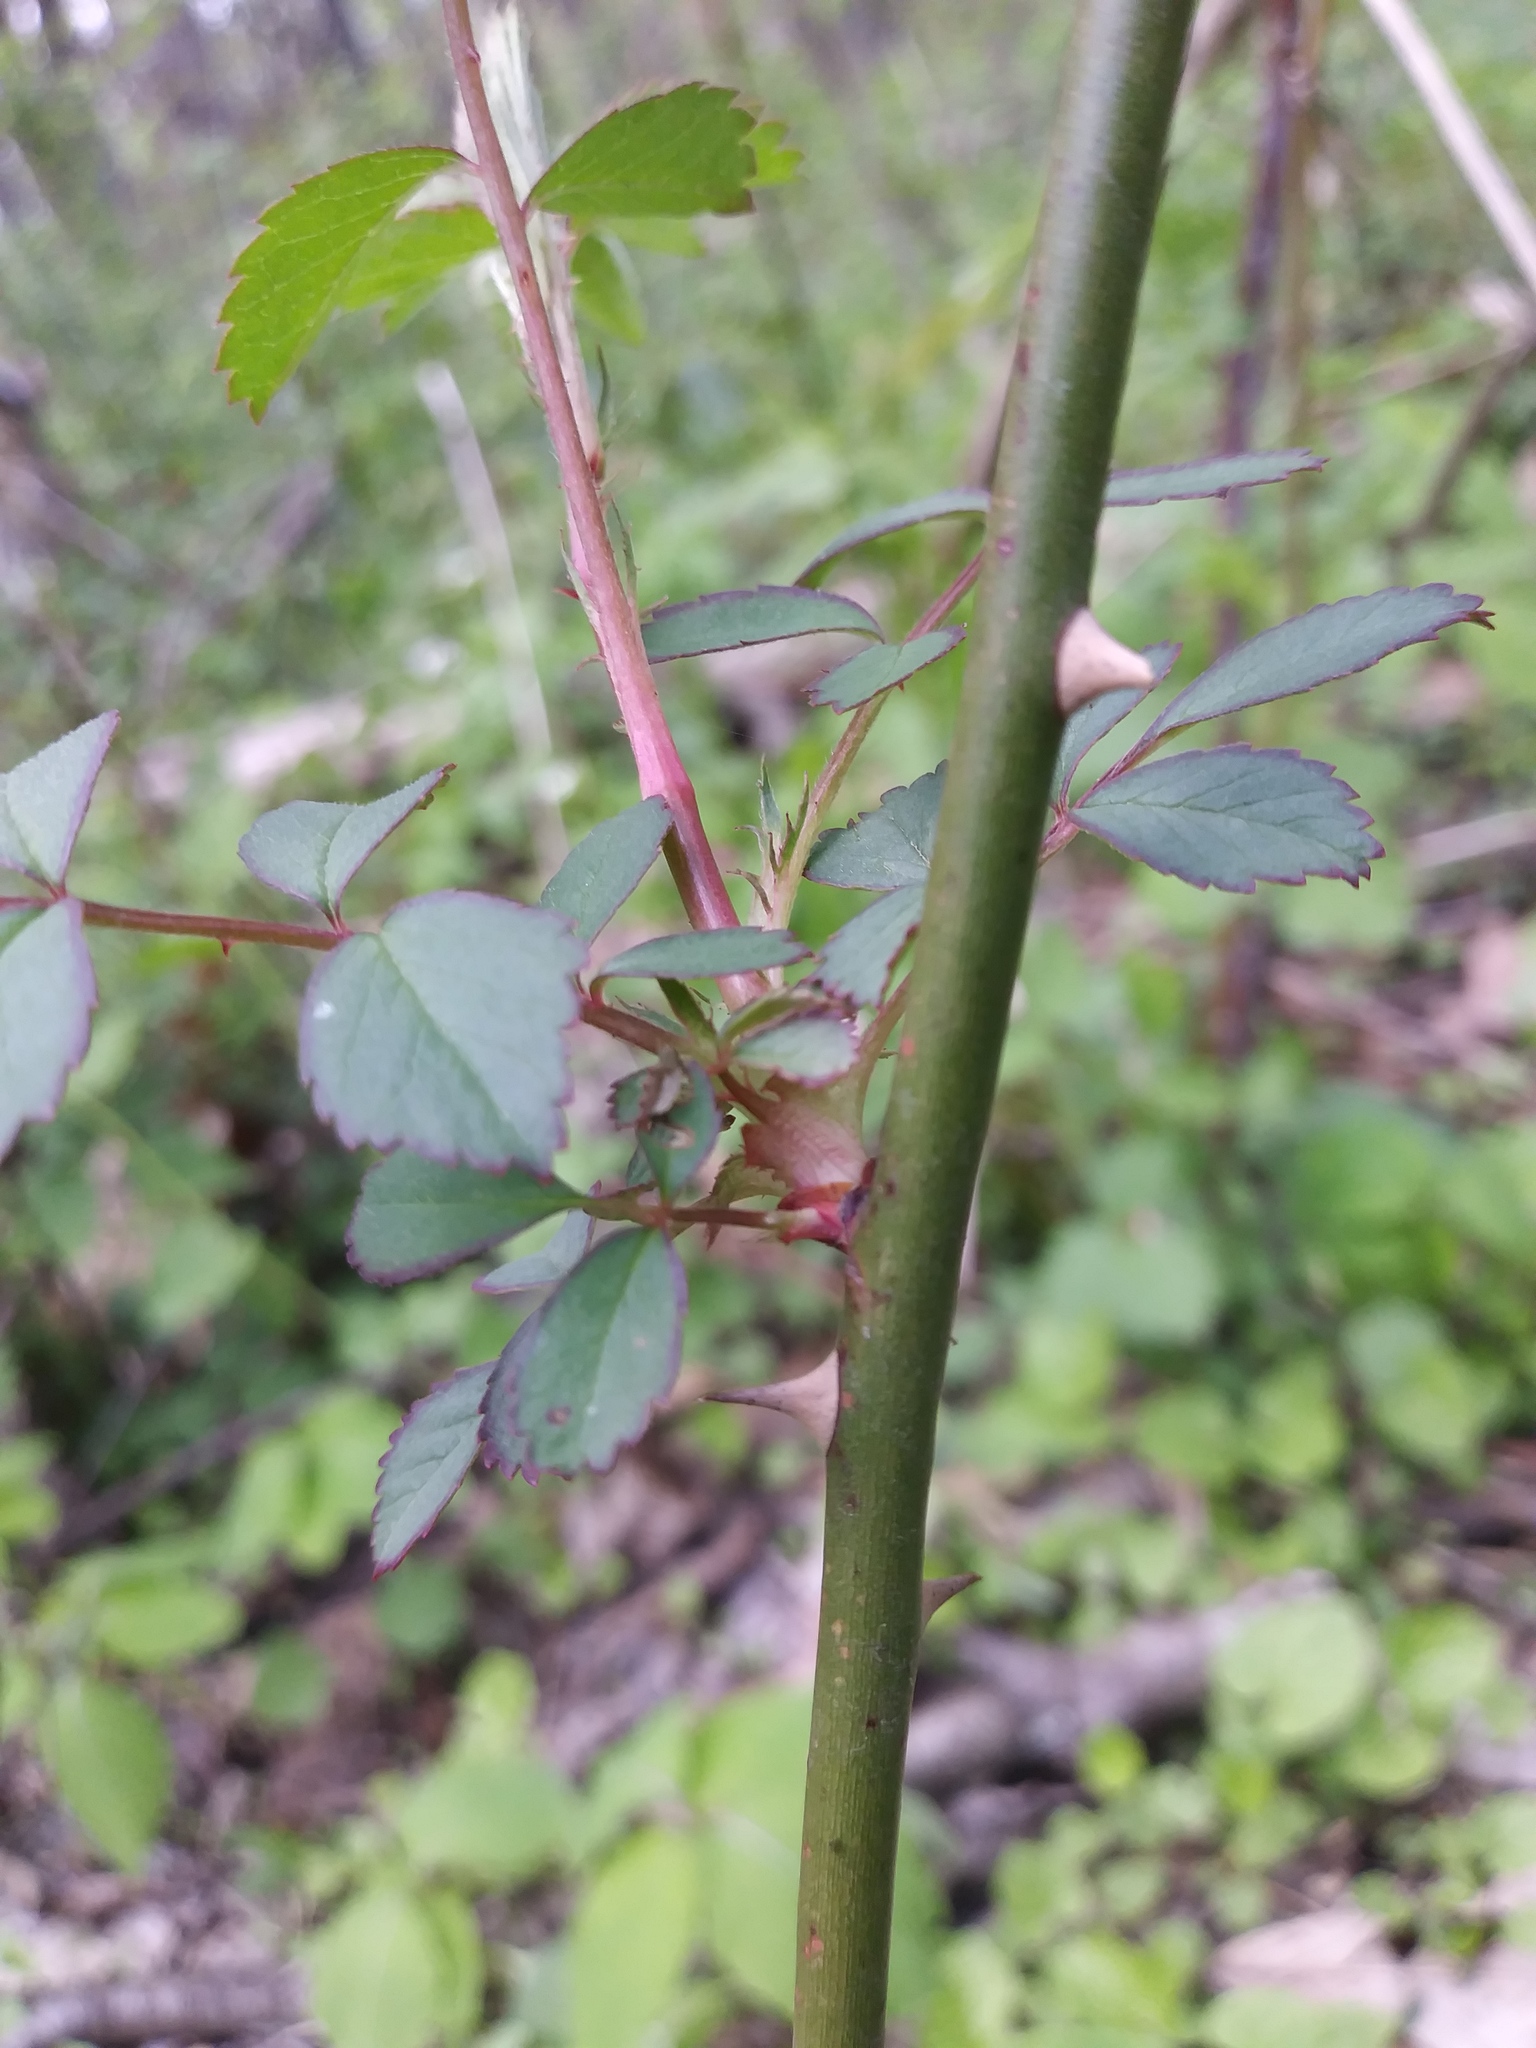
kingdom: Plantae
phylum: Tracheophyta
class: Magnoliopsida
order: Rosales
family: Rosaceae
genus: Rosa
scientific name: Rosa multiflora
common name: Multiflora rose
